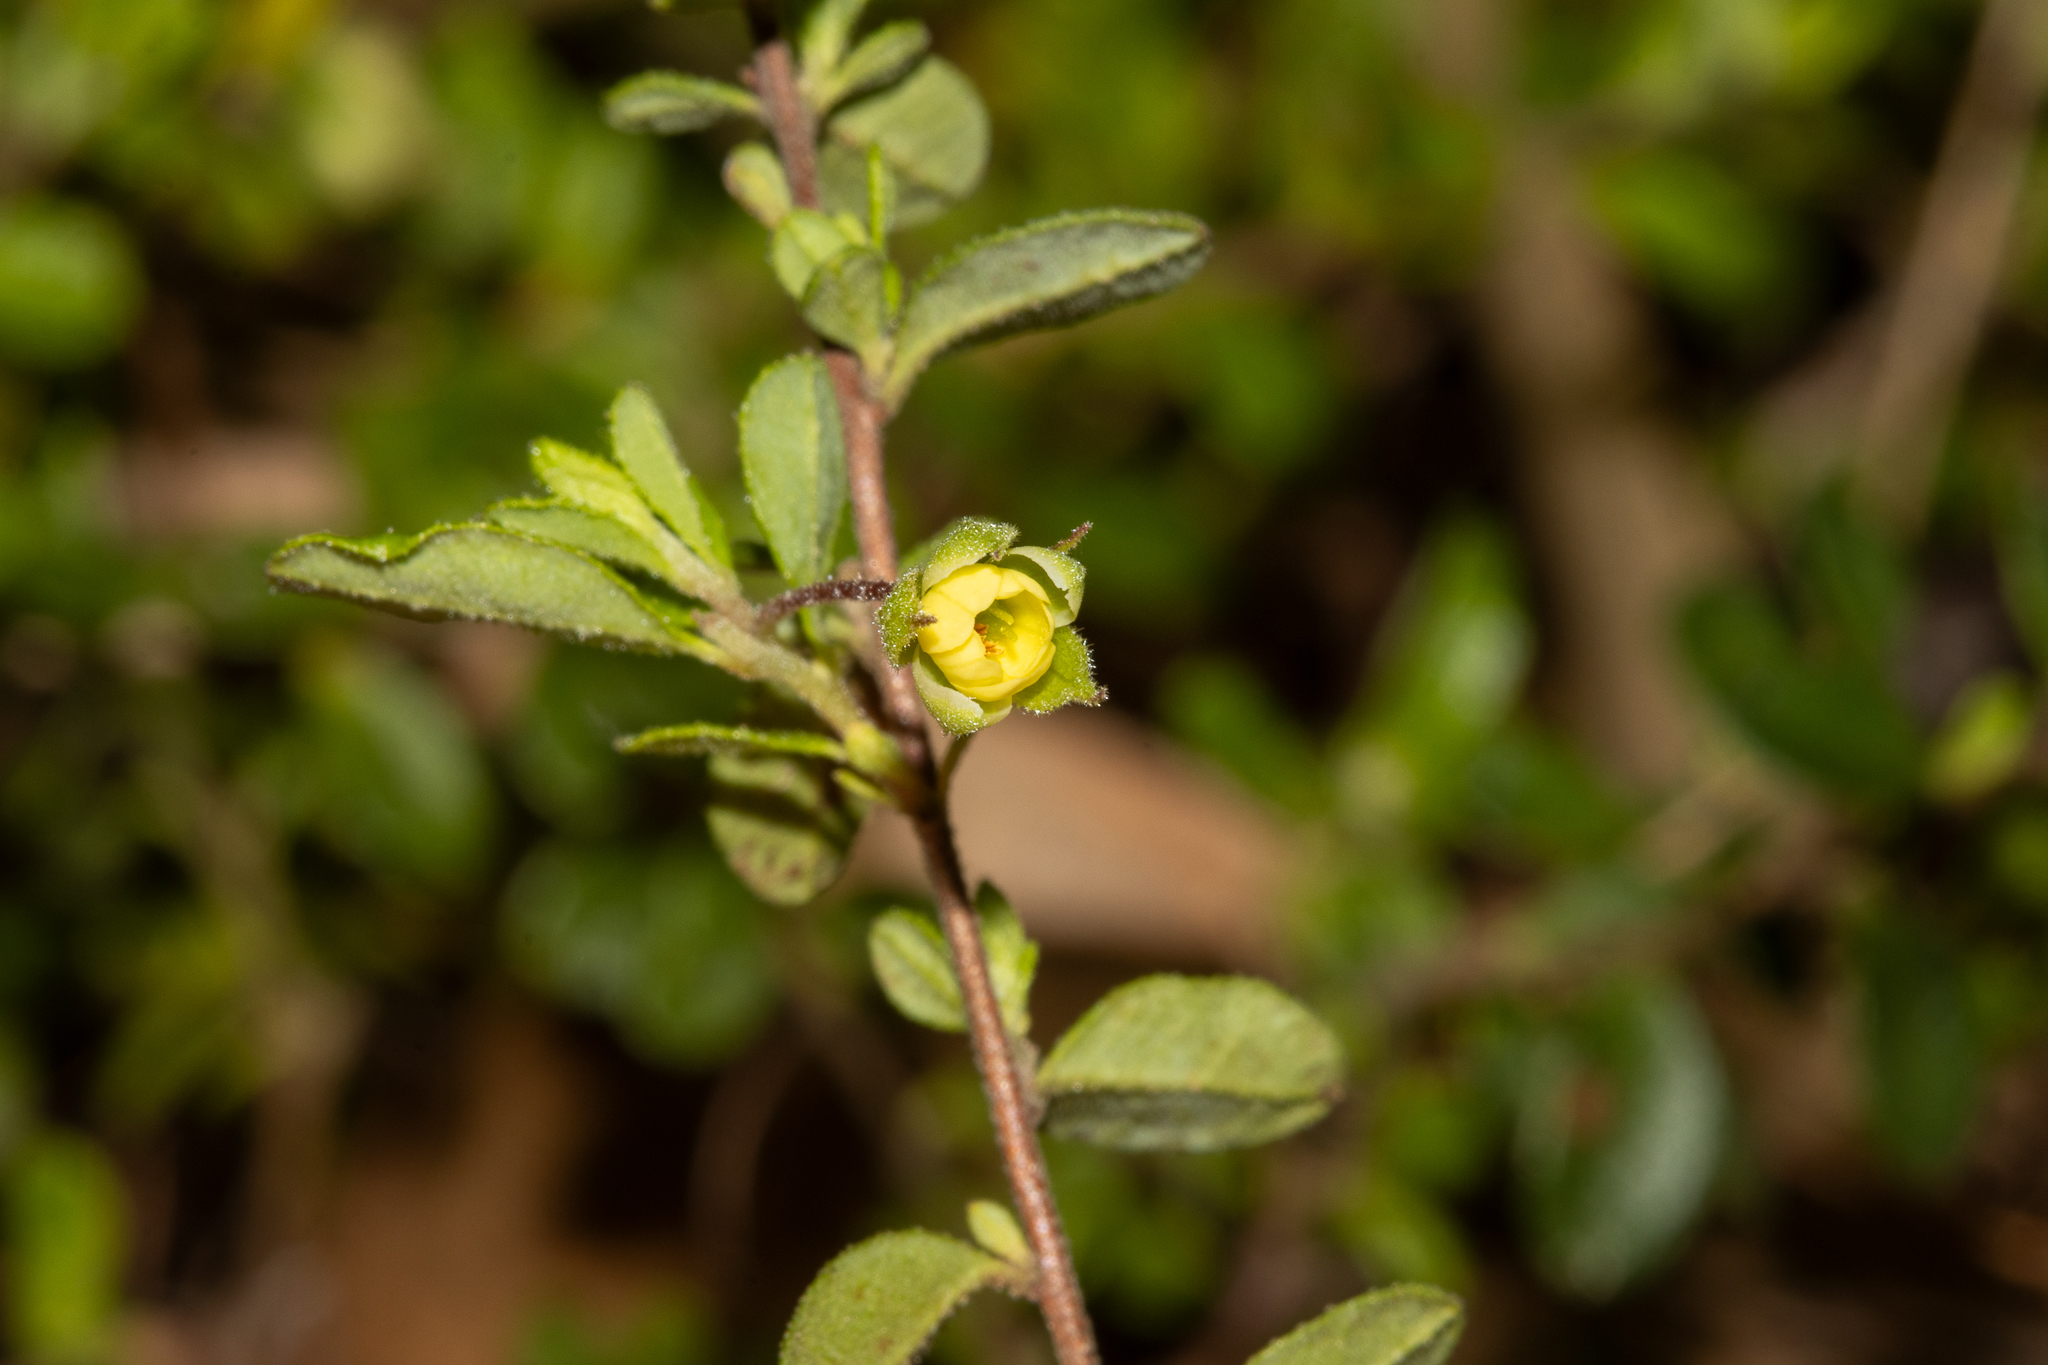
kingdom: Plantae
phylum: Tracheophyta
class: Magnoliopsida
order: Dilleniales
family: Dilleniaceae
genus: Hibbertia
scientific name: Hibbertia pallidiflora
